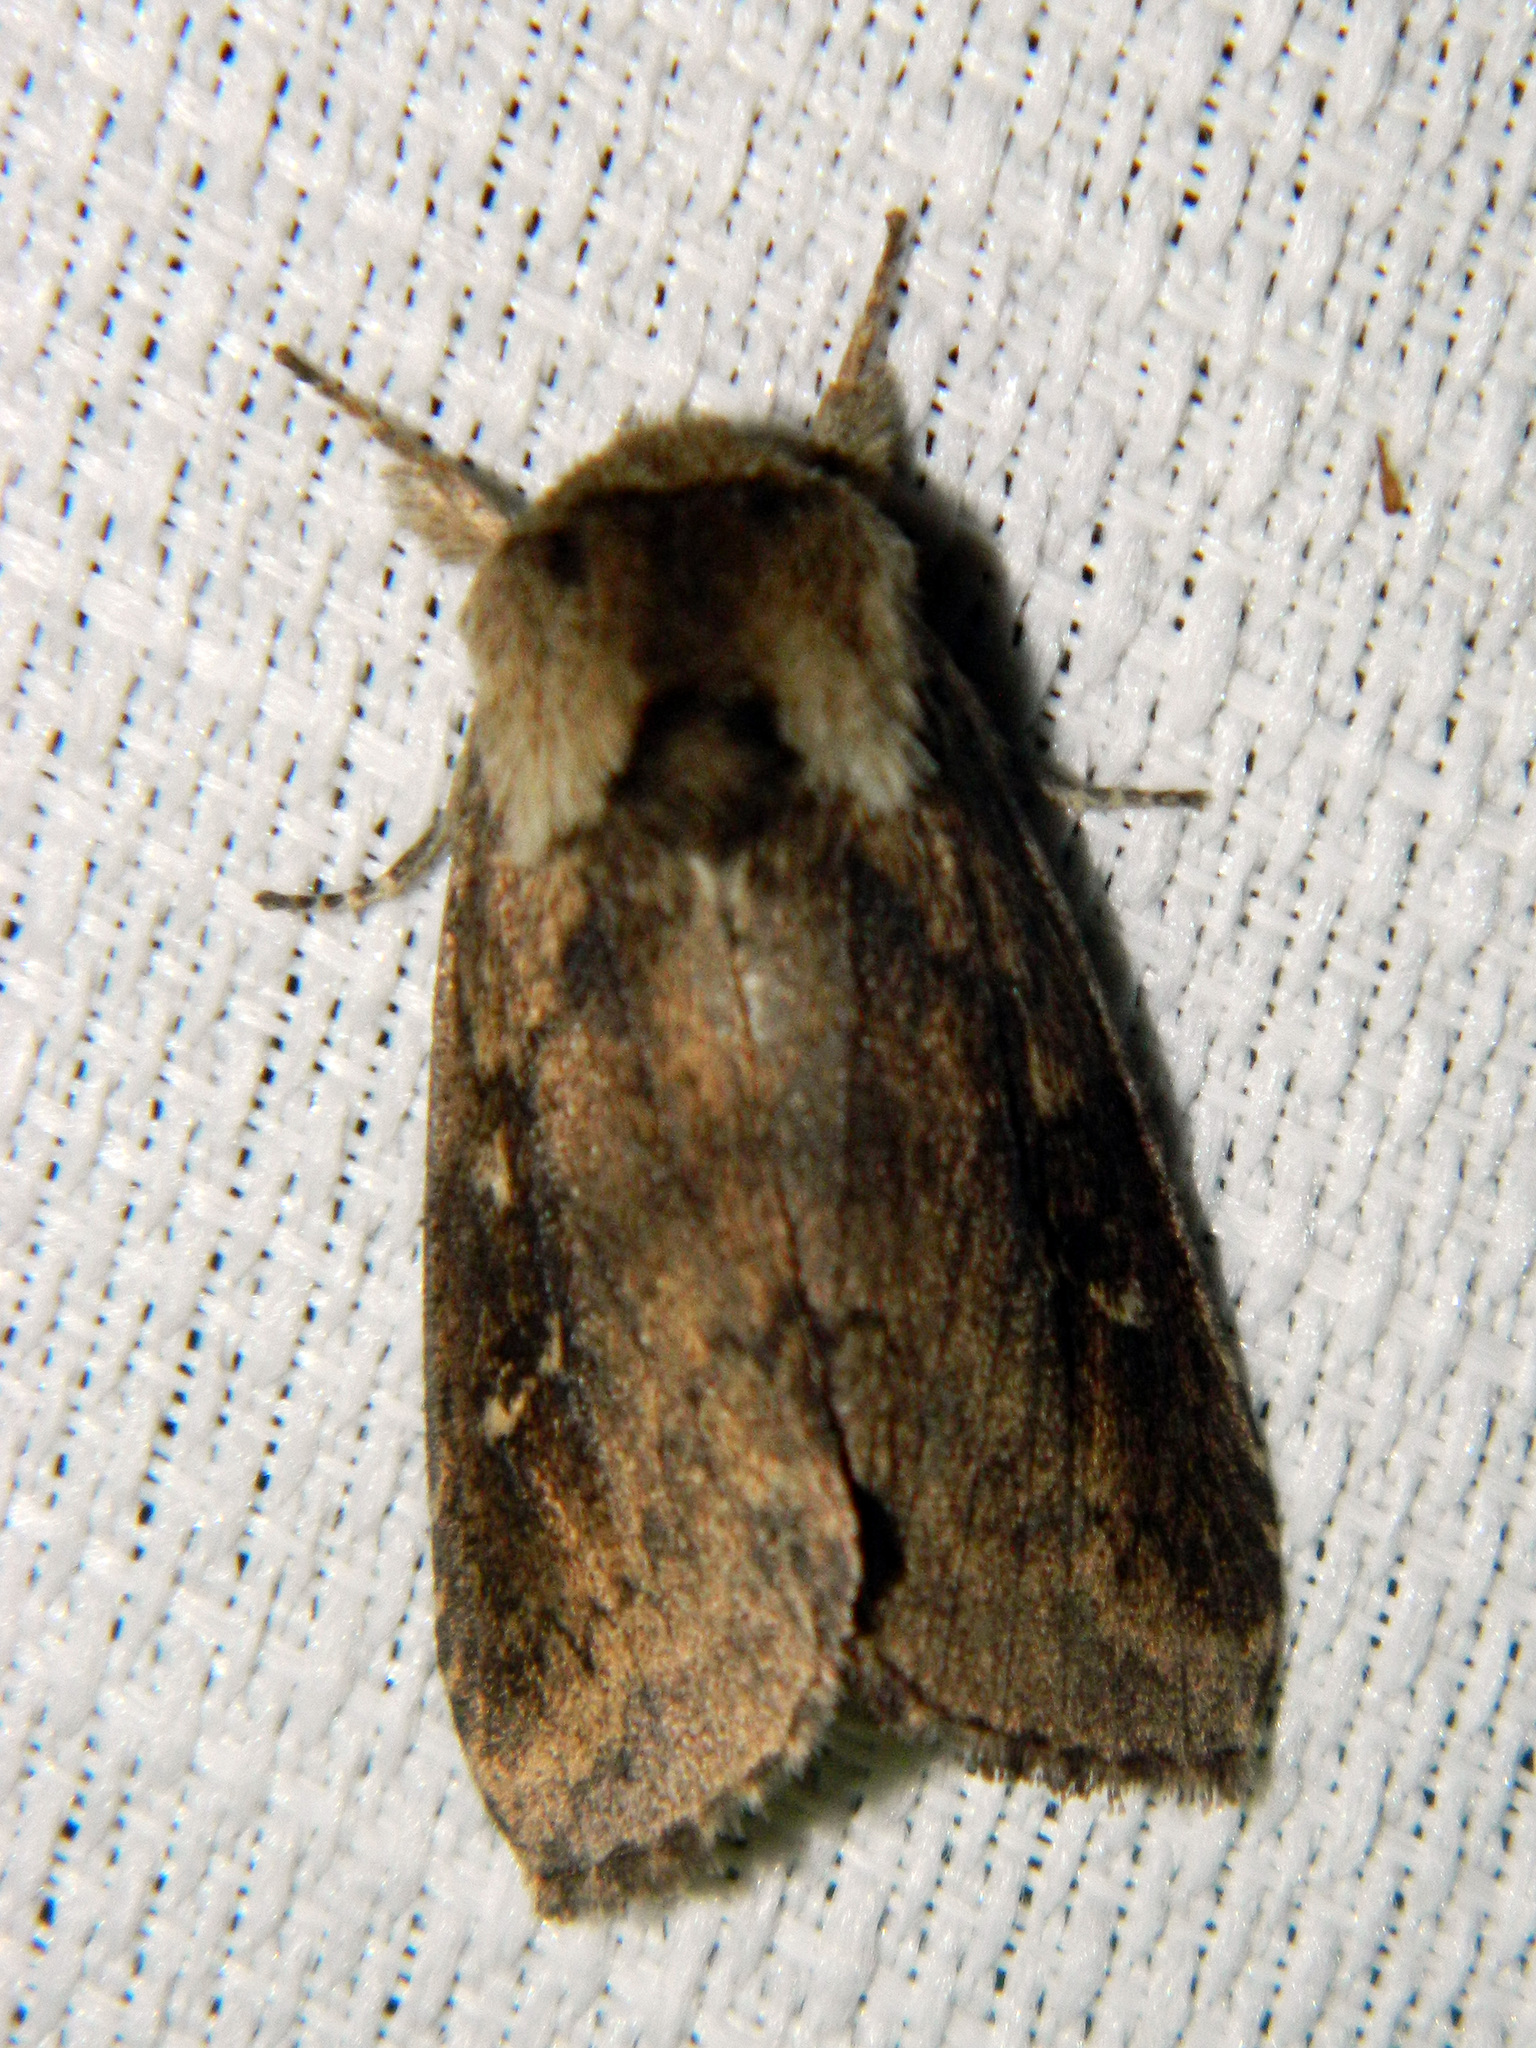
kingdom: Animalia
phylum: Arthropoda
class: Insecta
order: Lepidoptera
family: Noctuidae
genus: Bellura
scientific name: Bellura vulnifica
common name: Black-tailed diver moth
